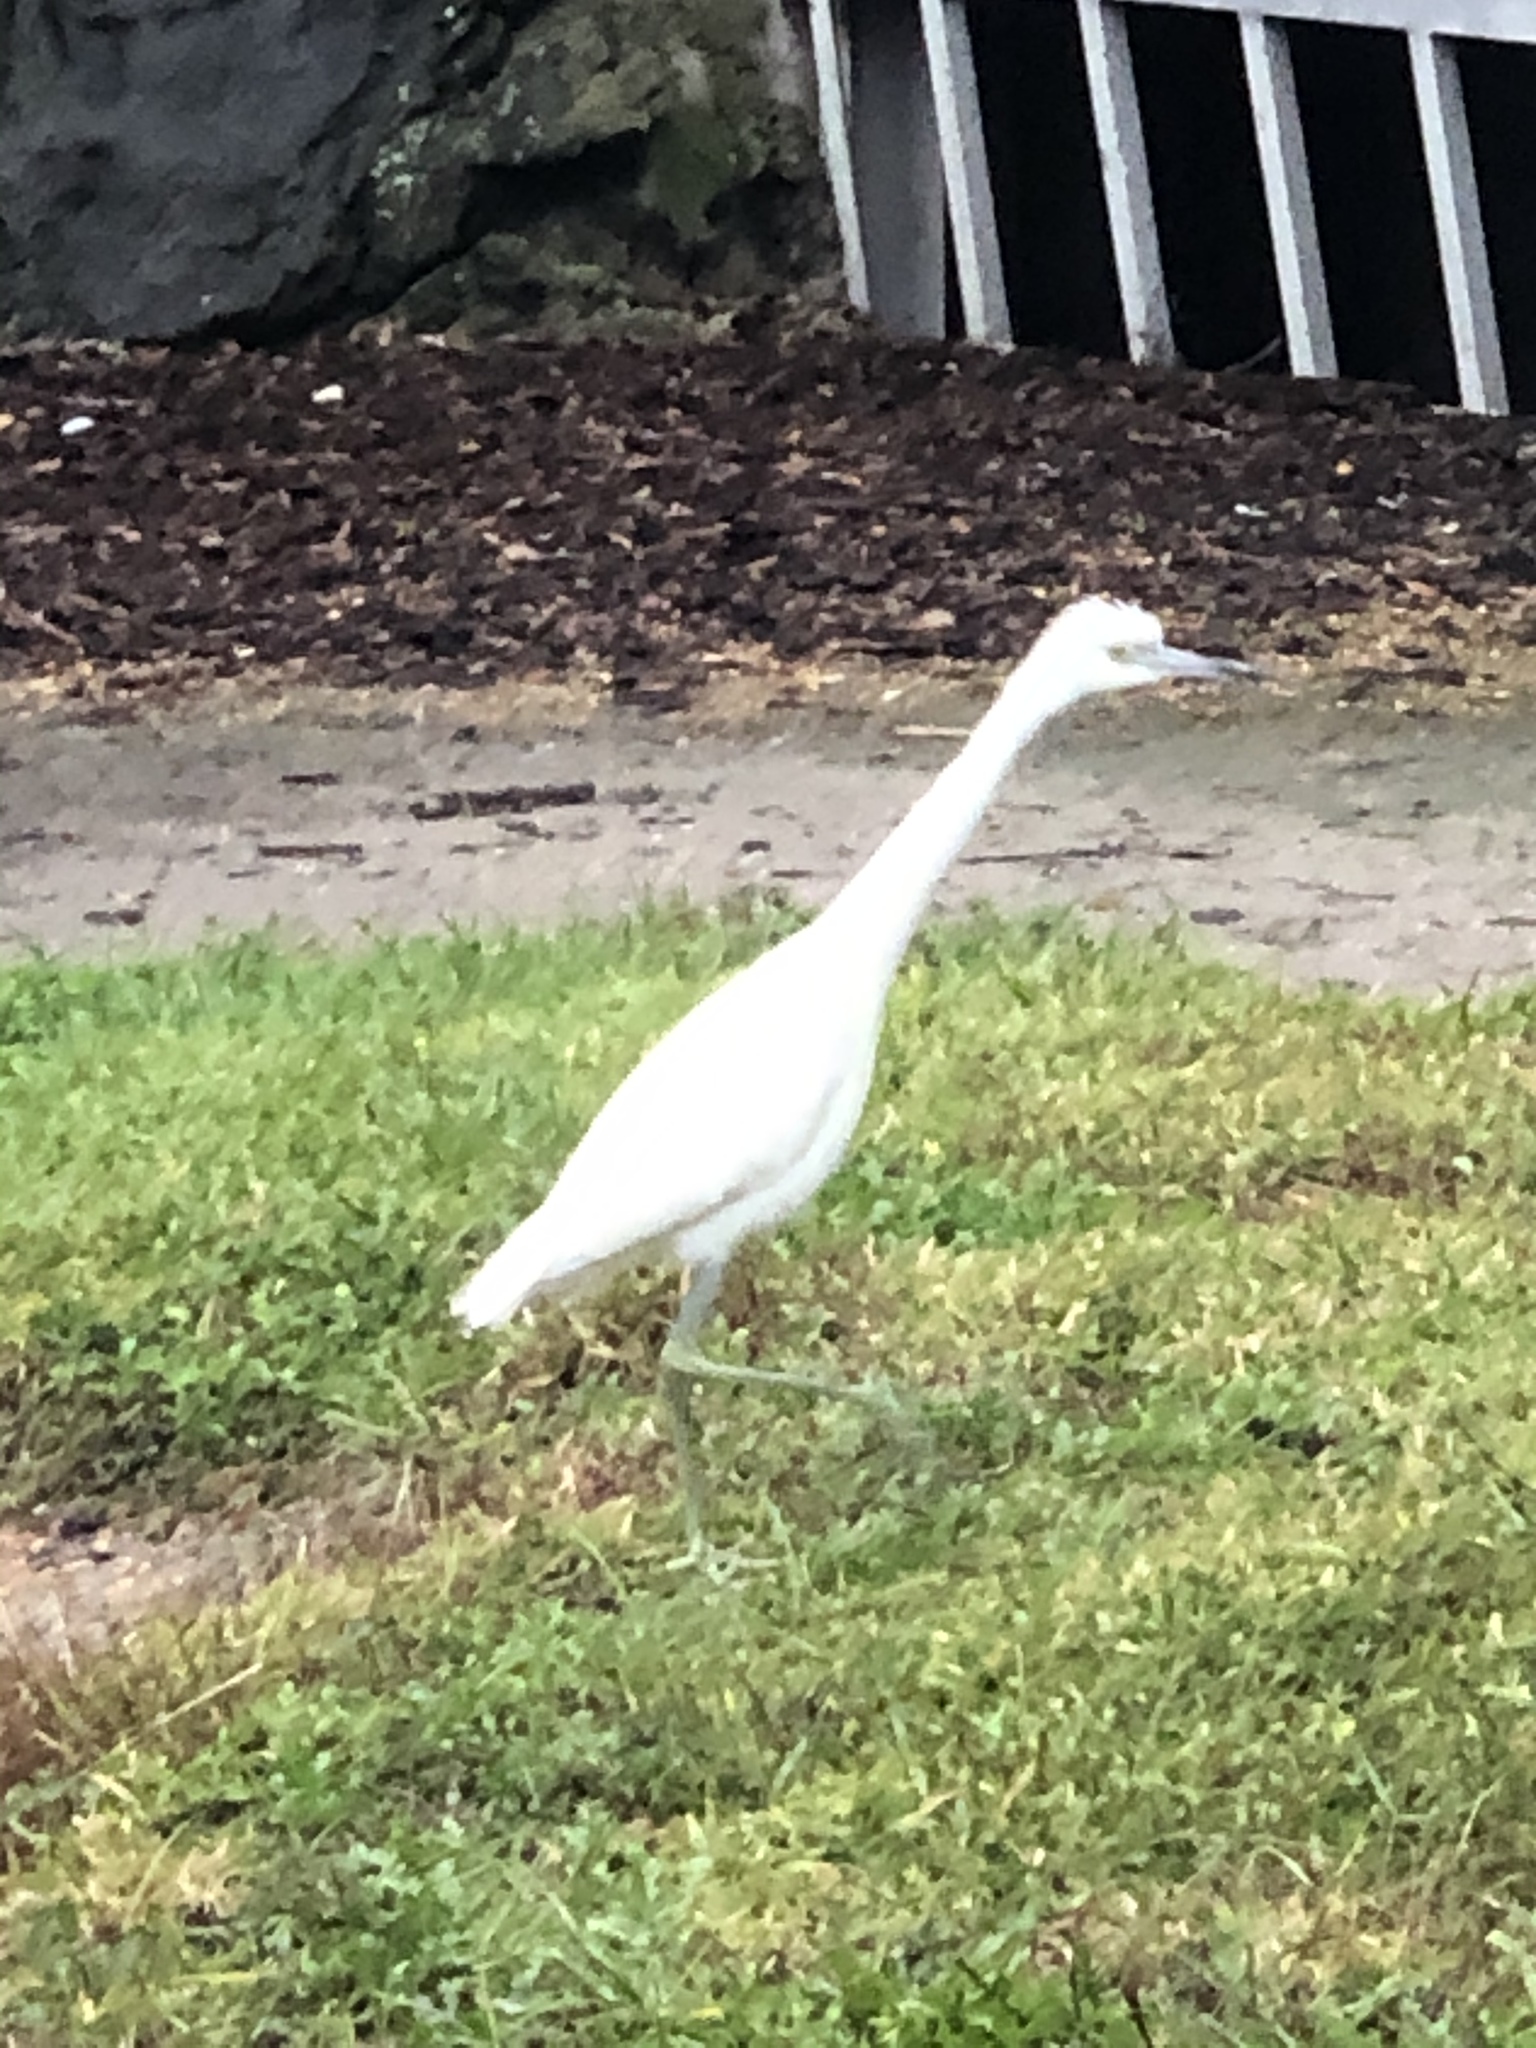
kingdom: Animalia
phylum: Chordata
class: Aves
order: Pelecaniformes
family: Ardeidae
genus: Egretta
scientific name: Egretta caerulea
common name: Little blue heron
